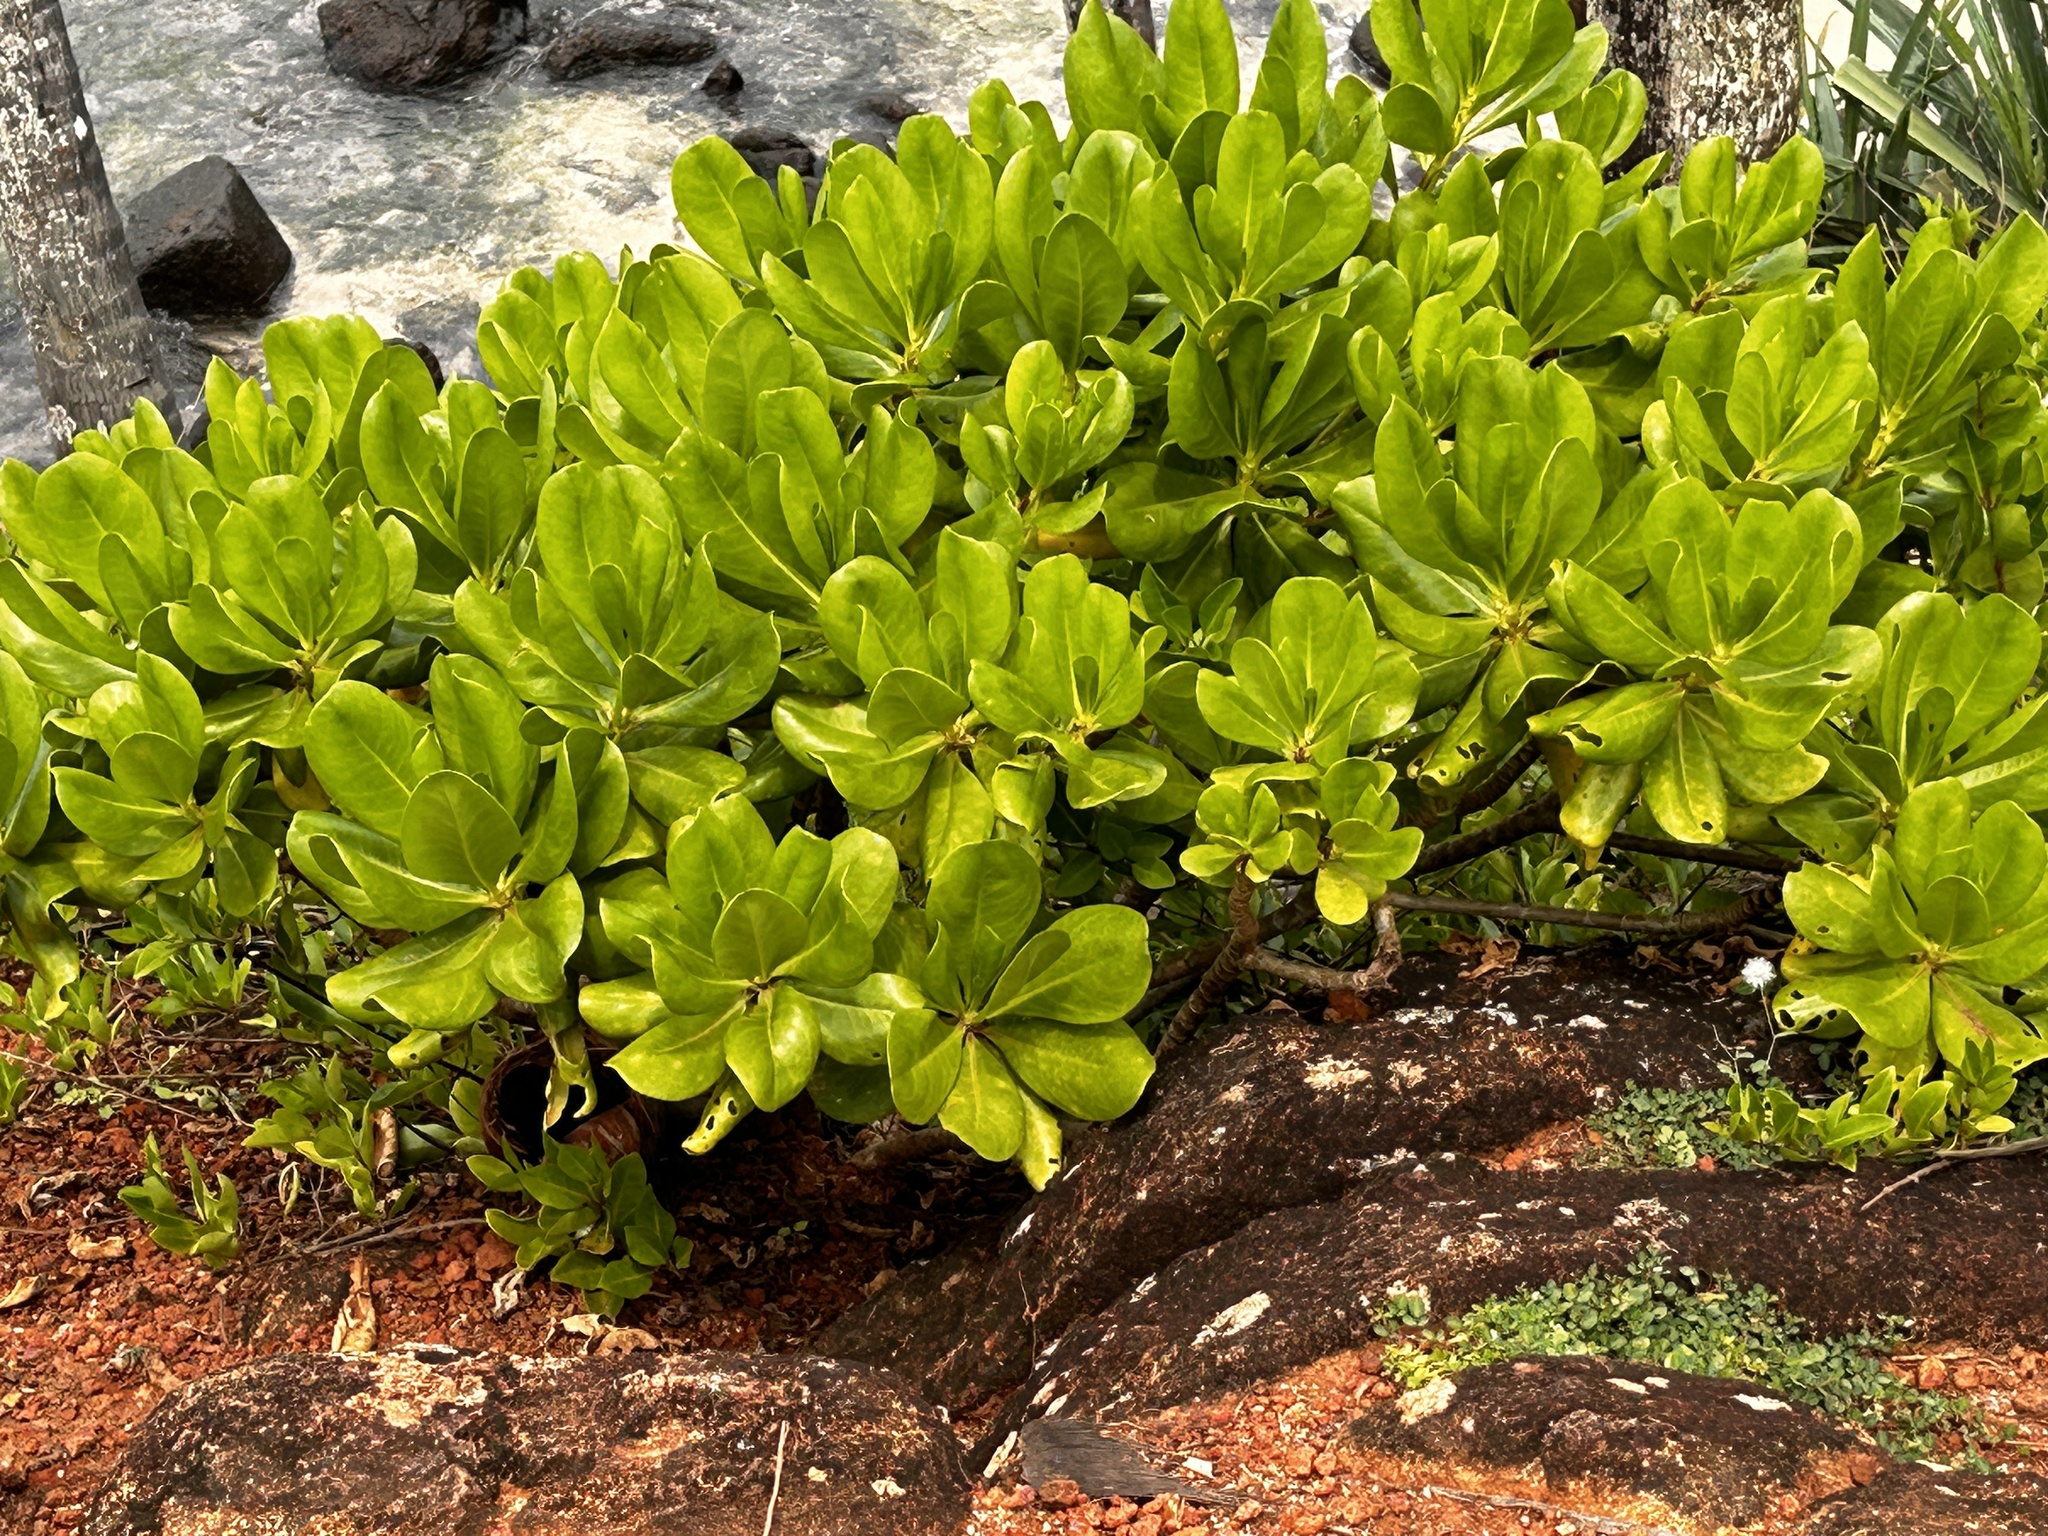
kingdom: Plantae
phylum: Tracheophyta
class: Magnoliopsida
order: Asterales
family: Goodeniaceae
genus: Scaevola
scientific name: Scaevola taccada
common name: Sea lettucetree
